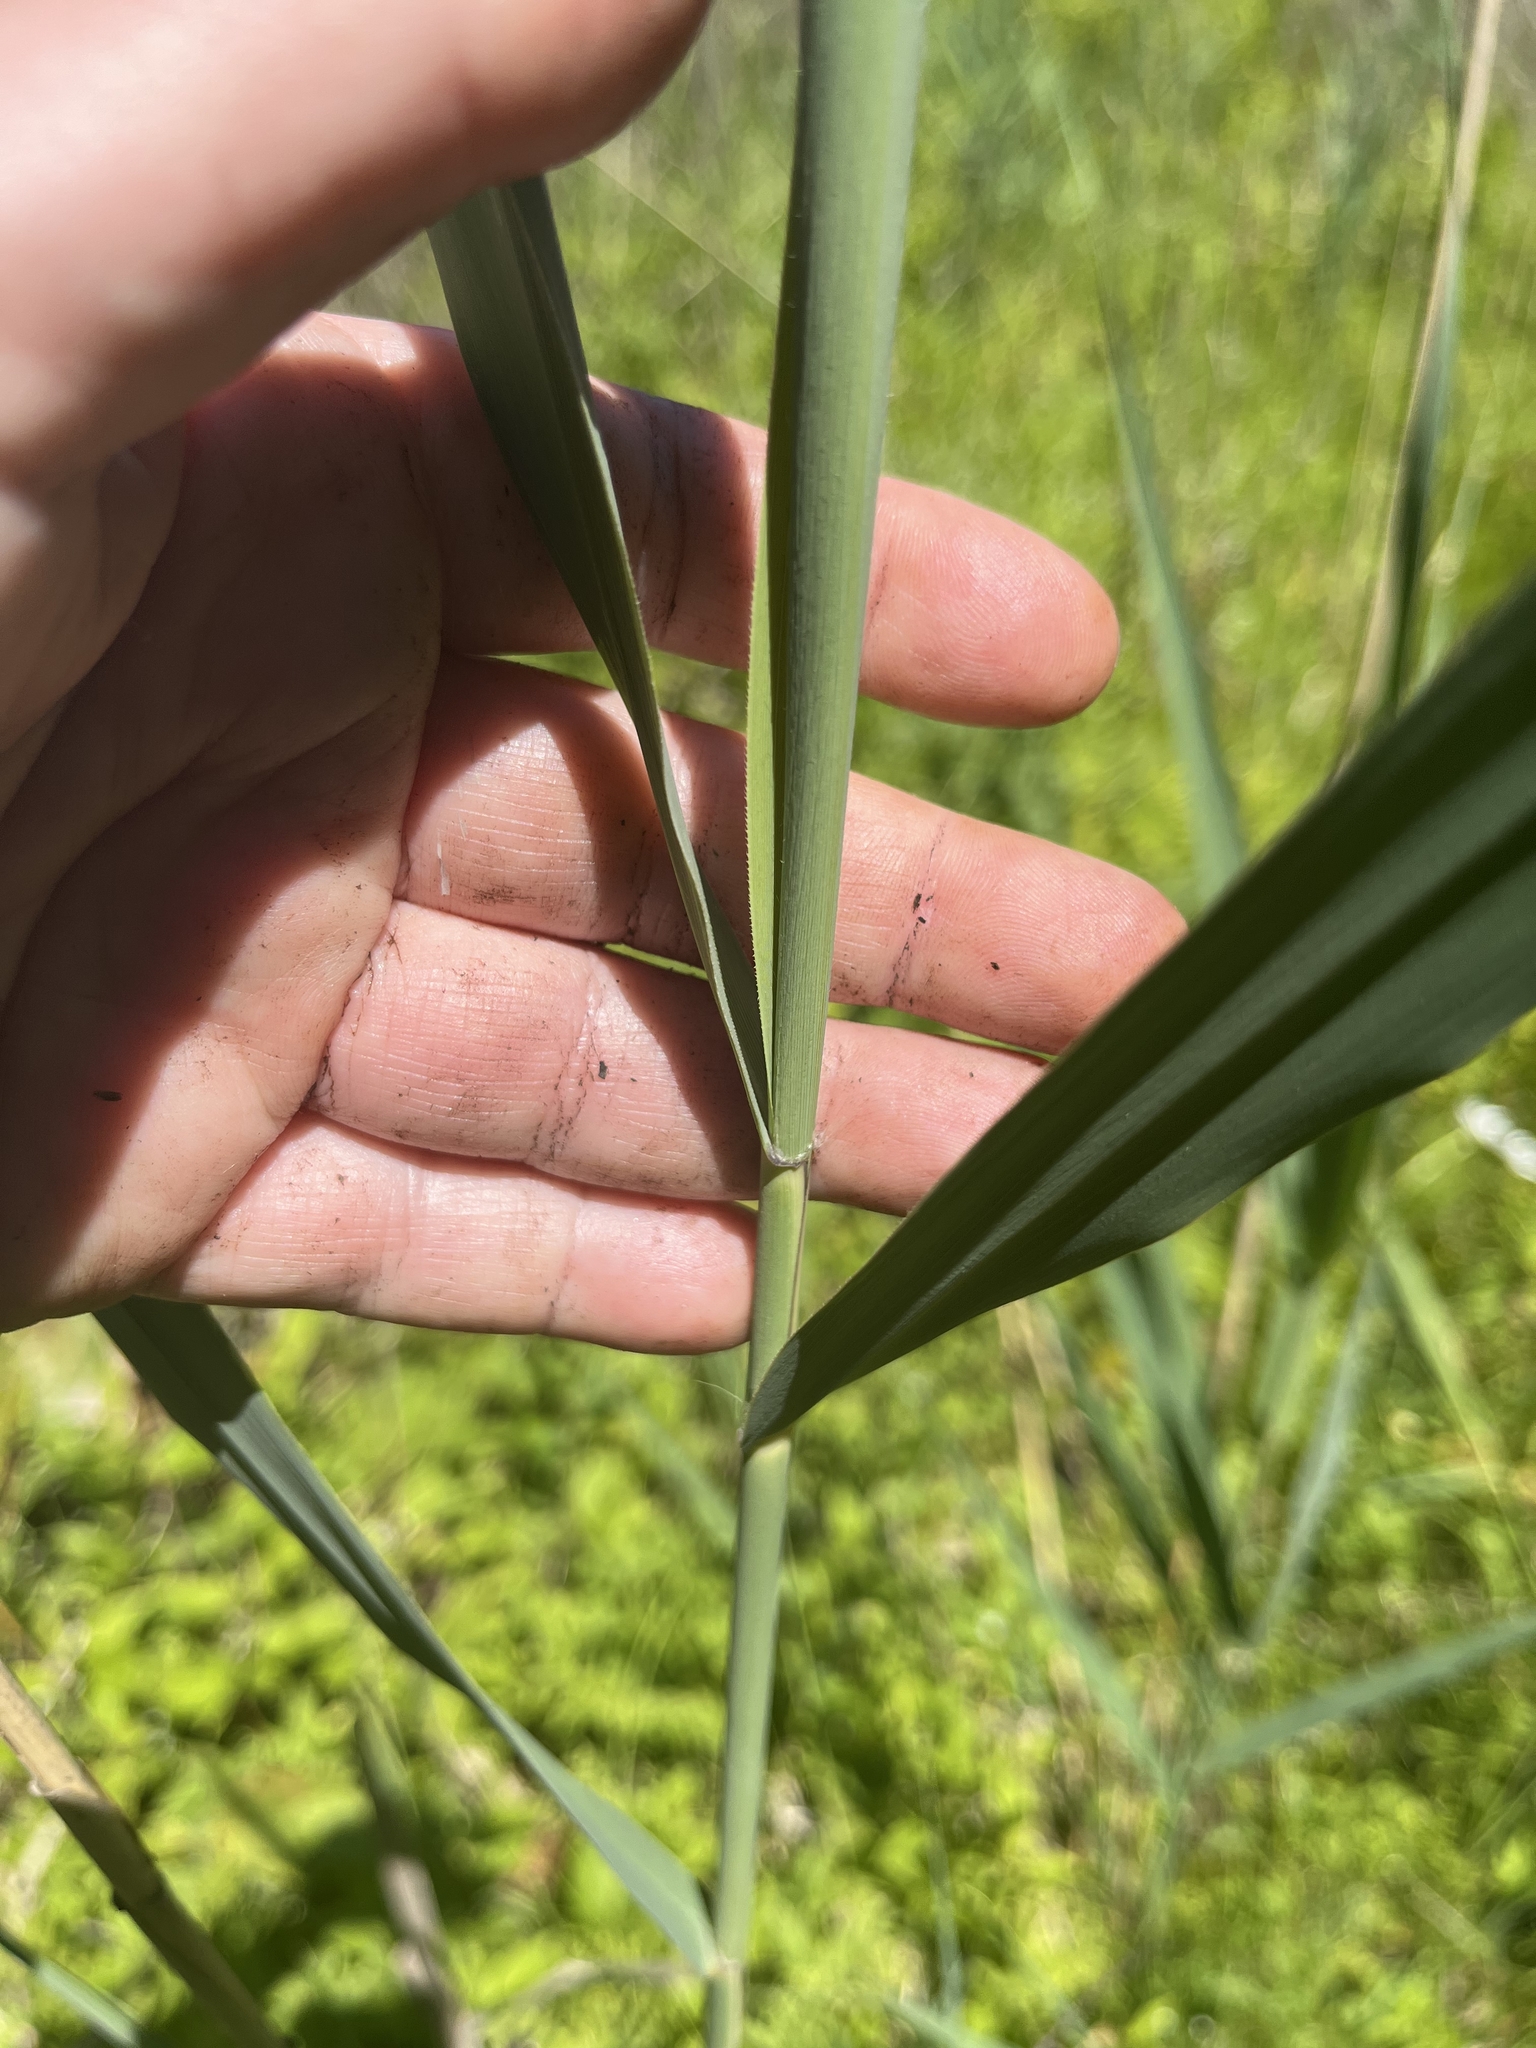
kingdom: Plantae
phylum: Tracheophyta
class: Liliopsida
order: Poales
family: Poaceae
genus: Phragmites
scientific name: Phragmites australis
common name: Common reed
